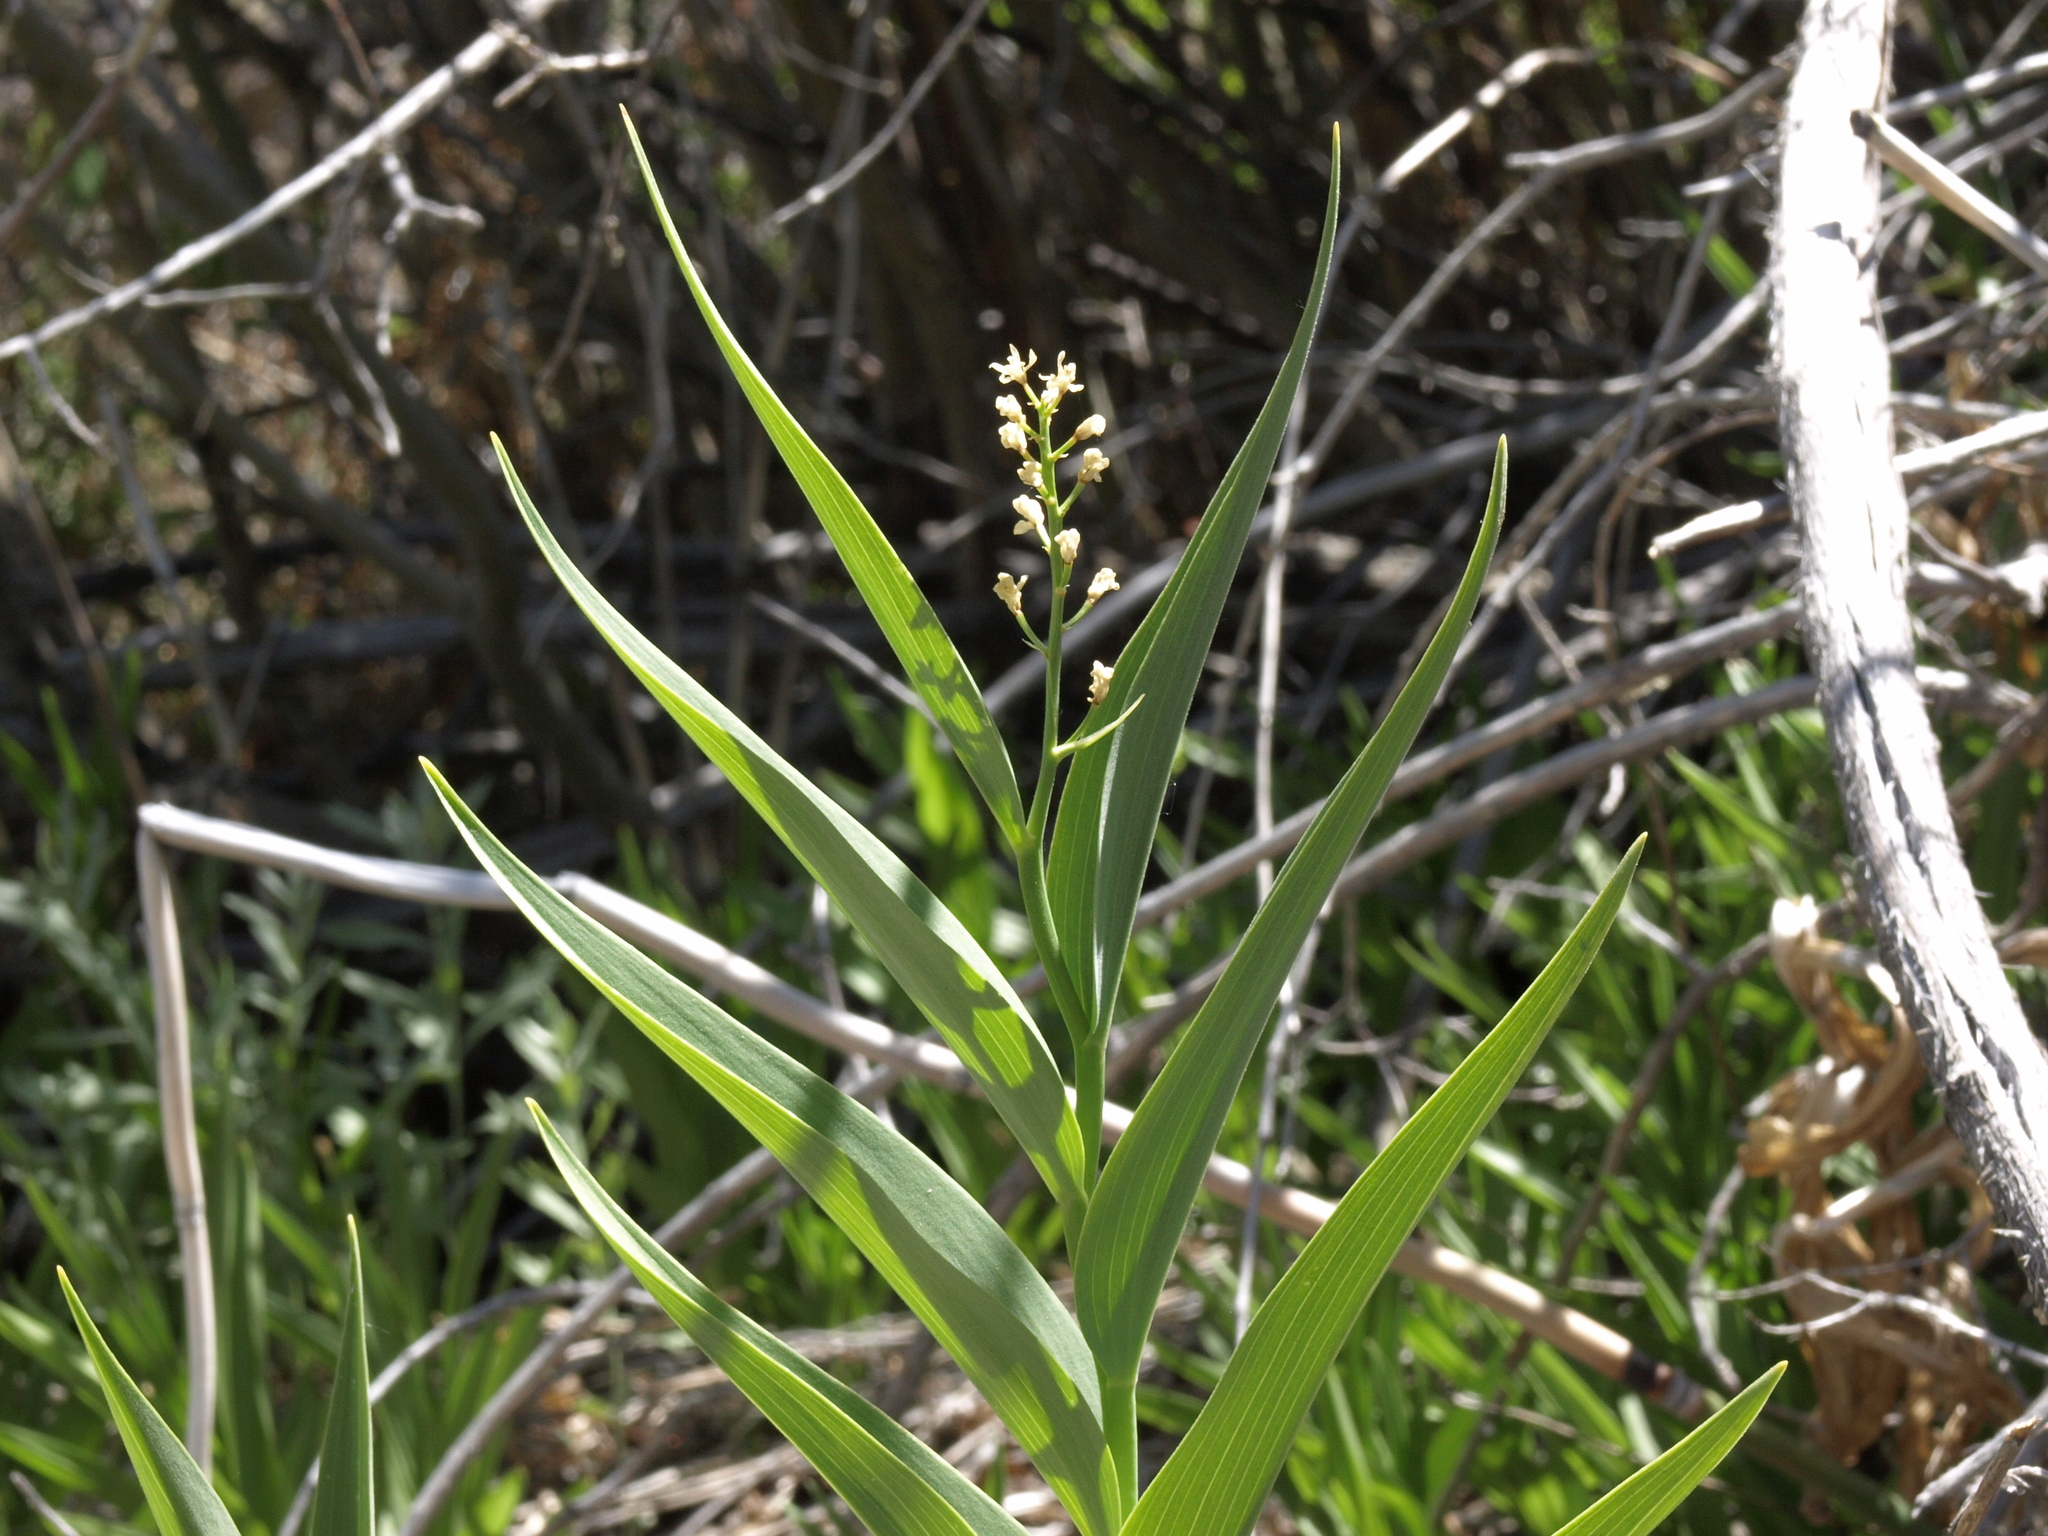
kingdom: Plantae
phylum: Tracheophyta
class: Liliopsida
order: Asparagales
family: Asparagaceae
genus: Maianthemum
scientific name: Maianthemum stellatum
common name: Little false solomon's seal
